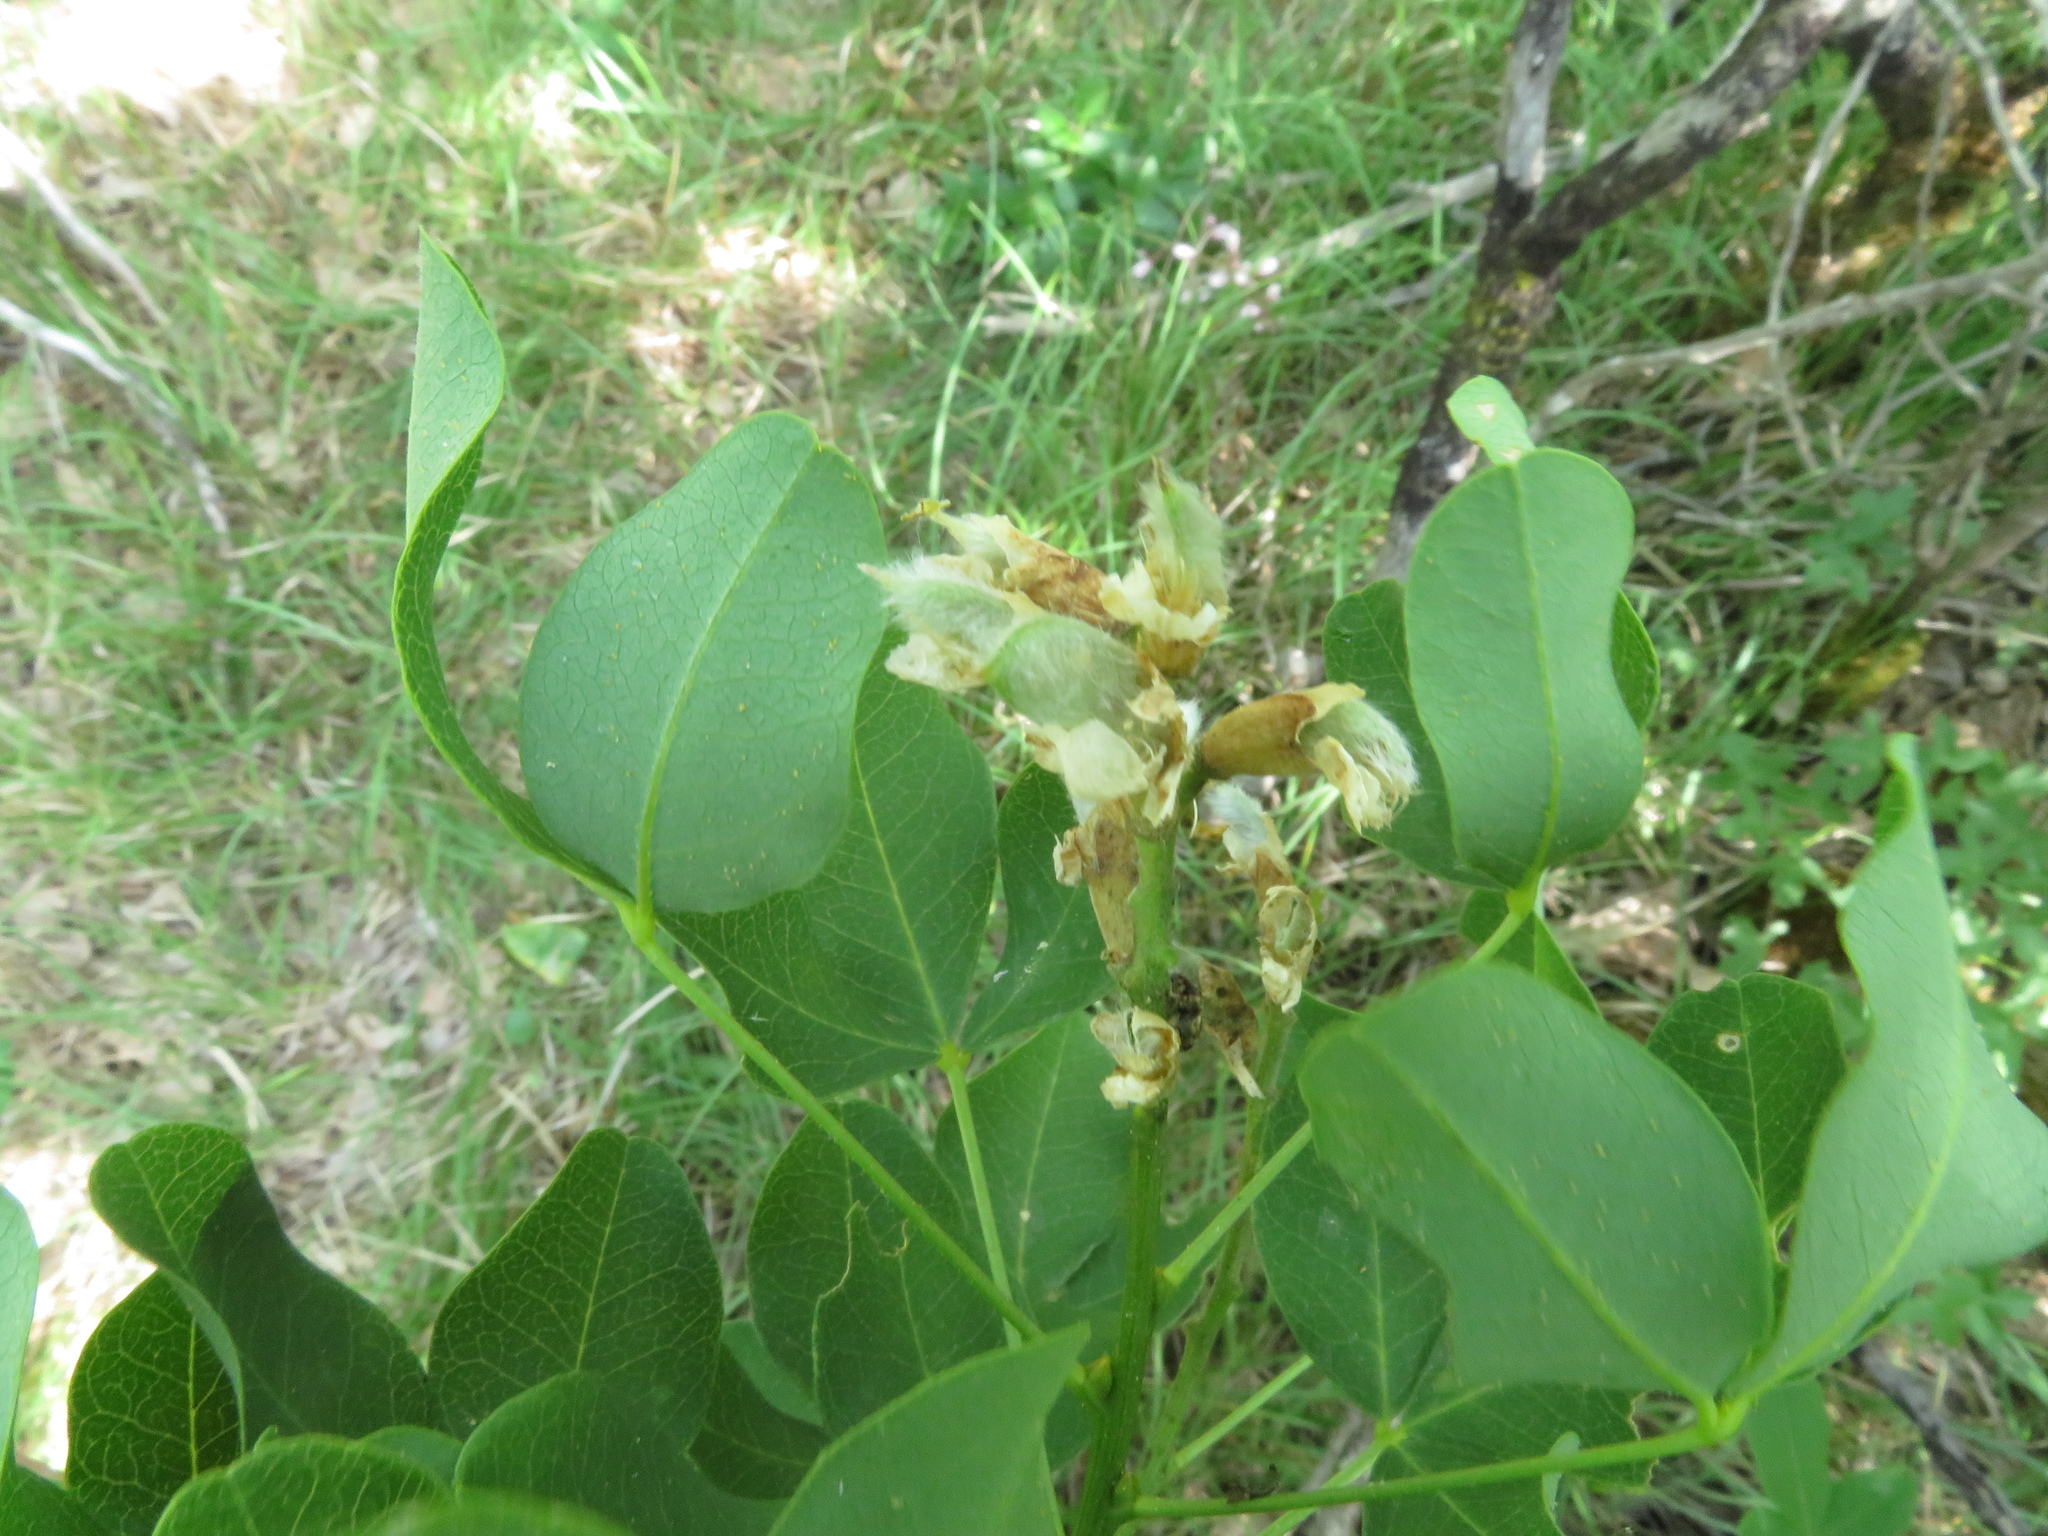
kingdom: Plantae
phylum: Tracheophyta
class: Magnoliopsida
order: Fabales
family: Fabaceae
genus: Petteria
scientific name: Petteria ramentacea
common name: Albanian broom
